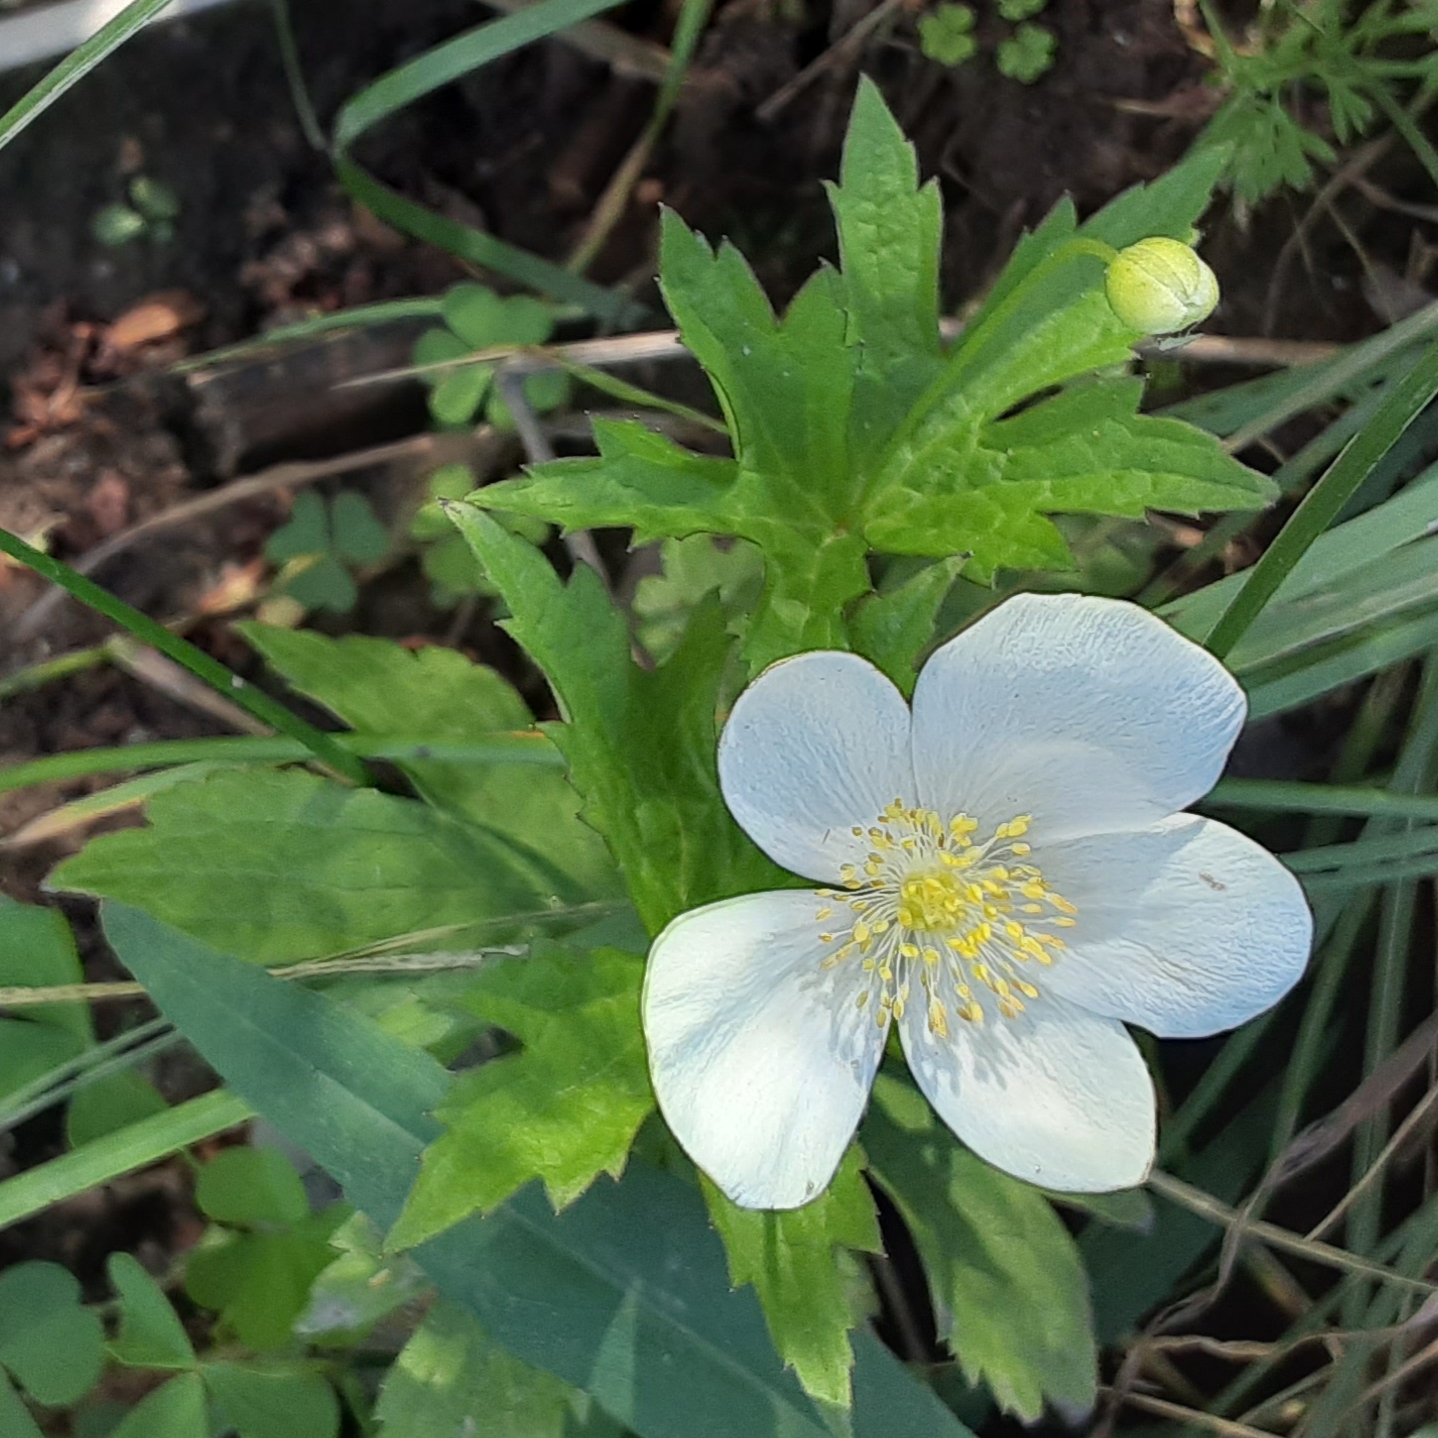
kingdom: Plantae
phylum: Tracheophyta
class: Magnoliopsida
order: Ranunculales
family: Ranunculaceae
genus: Anemonastrum
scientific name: Anemonastrum canadense
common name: Canada anemone
